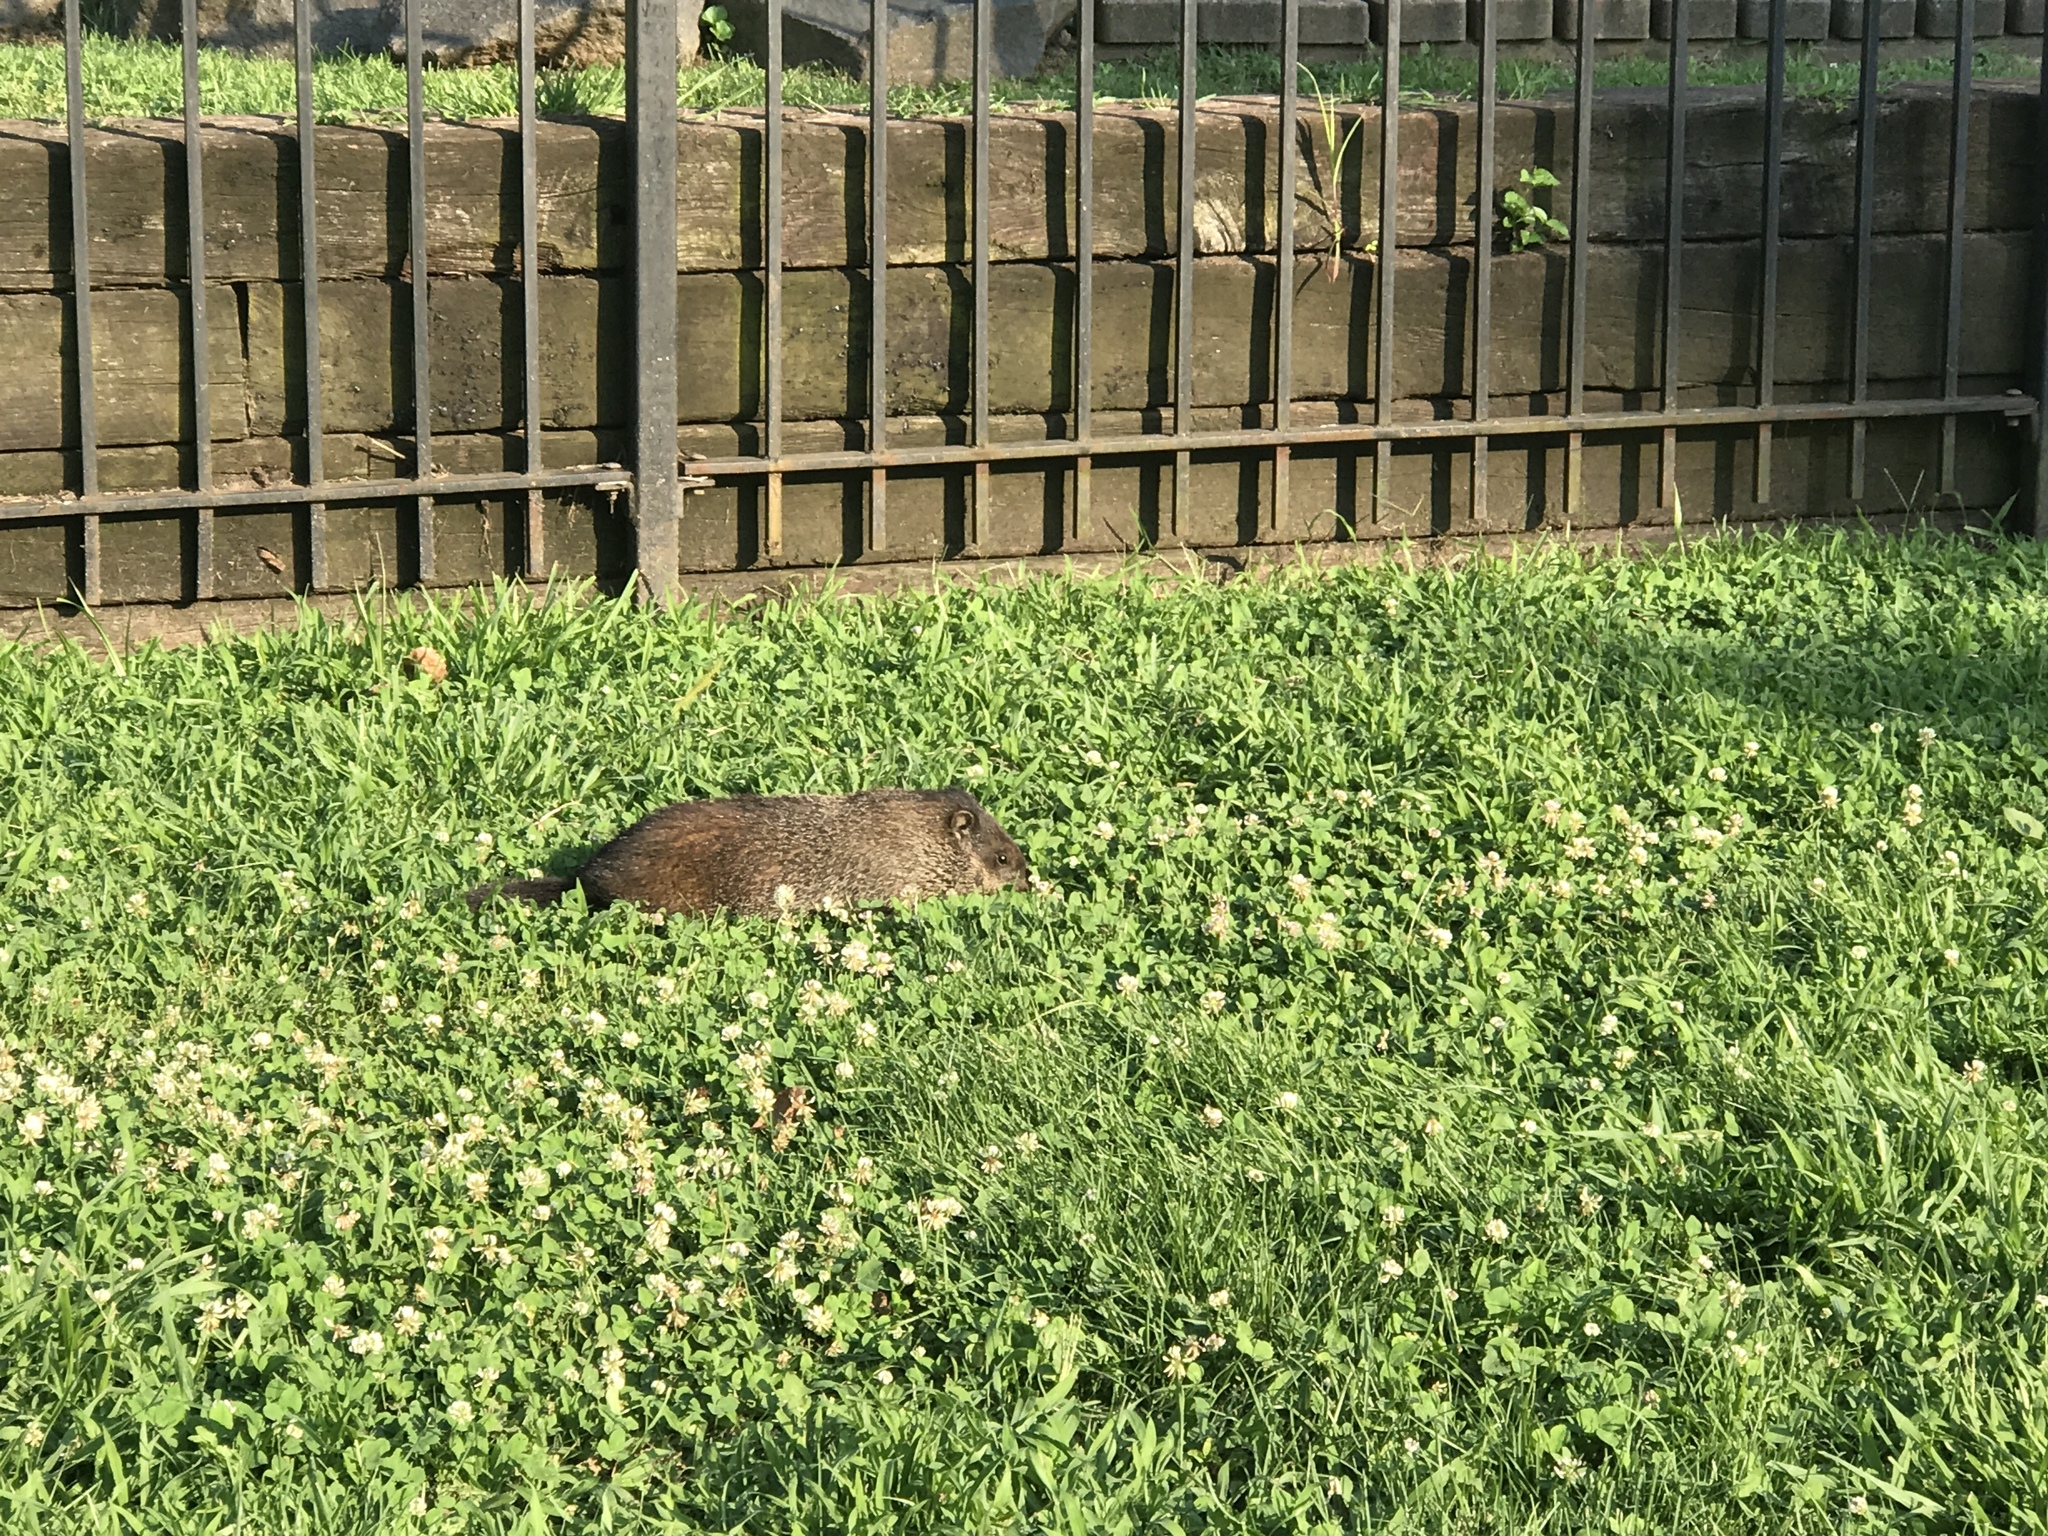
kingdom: Animalia
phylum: Chordata
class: Mammalia
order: Rodentia
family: Sciuridae
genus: Marmota
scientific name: Marmota monax
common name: Groundhog
